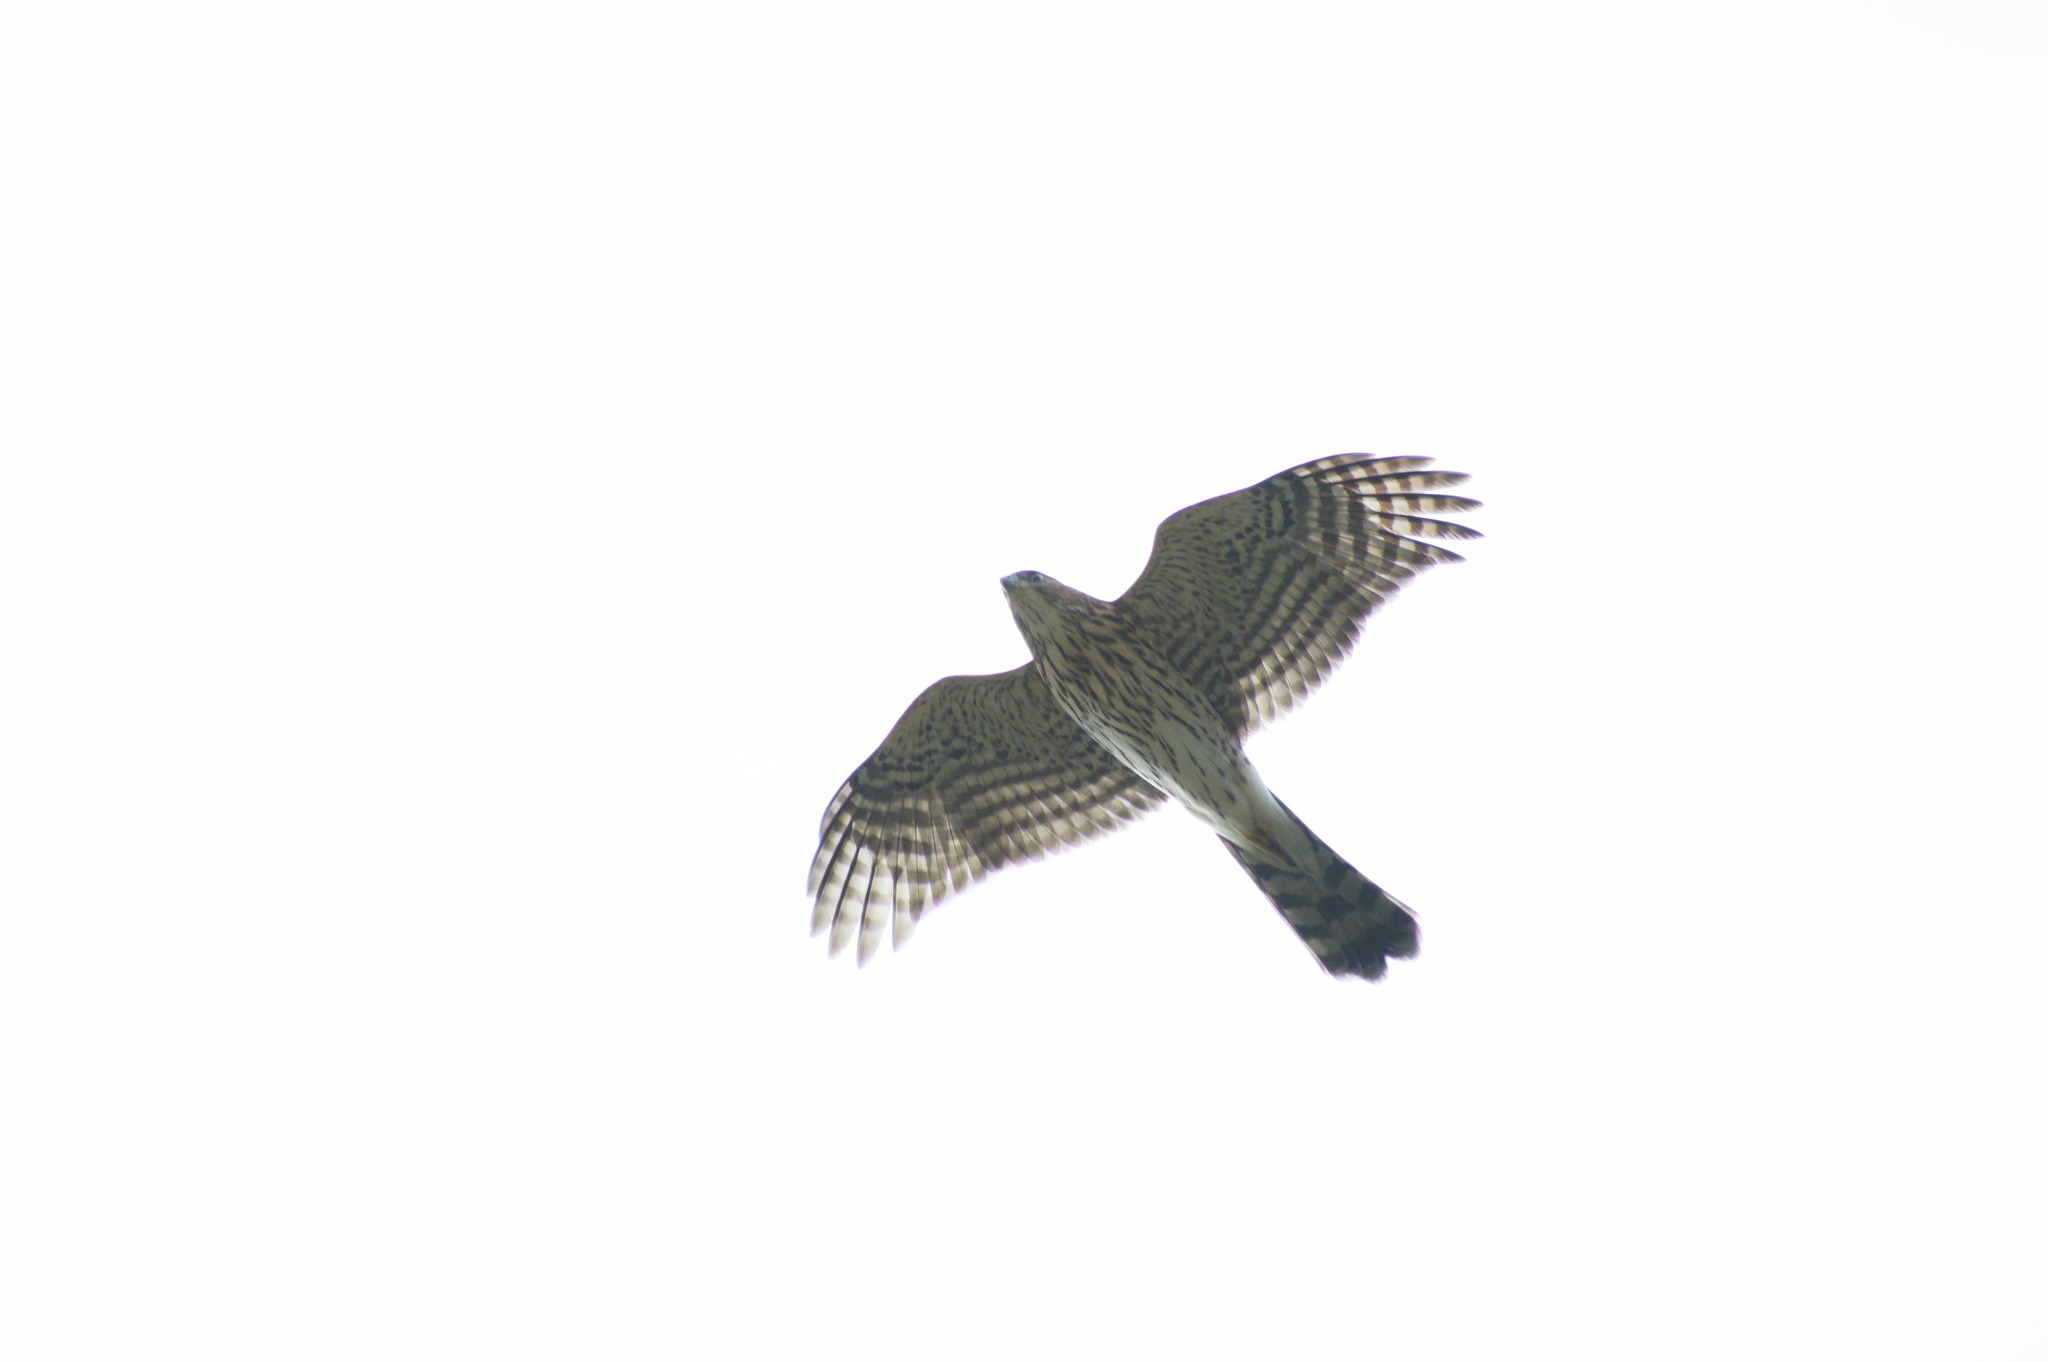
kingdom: Animalia
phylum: Chordata
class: Aves
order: Accipitriformes
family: Accipitridae
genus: Accipiter
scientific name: Accipiter cooperii
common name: Cooper's hawk
